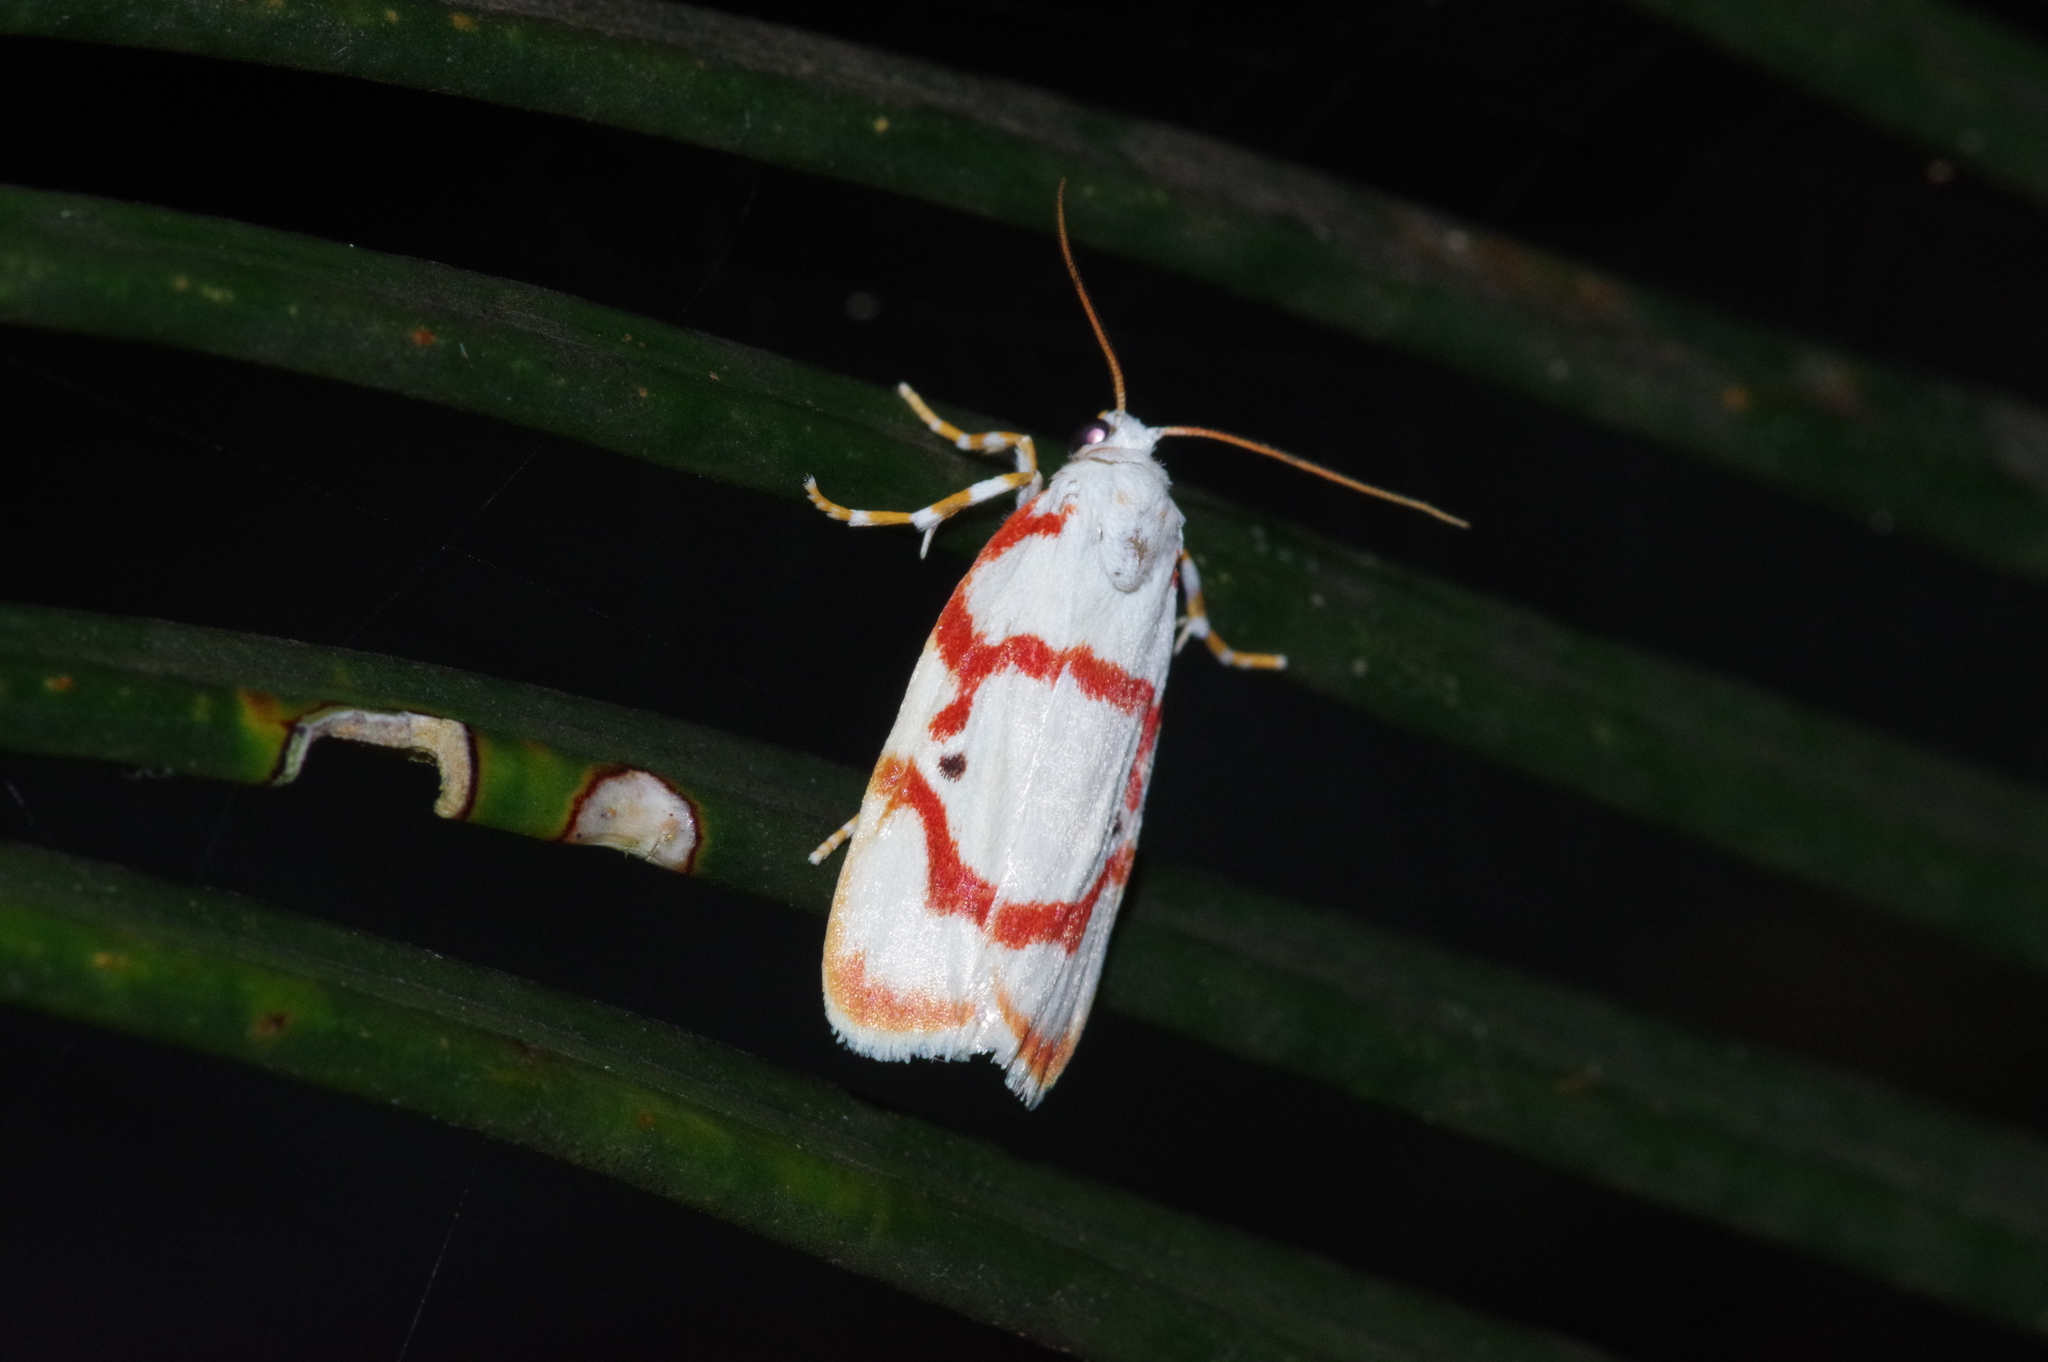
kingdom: Animalia
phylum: Arthropoda
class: Insecta
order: Lepidoptera
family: Erebidae
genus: Cyana
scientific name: Cyana unipuncta
